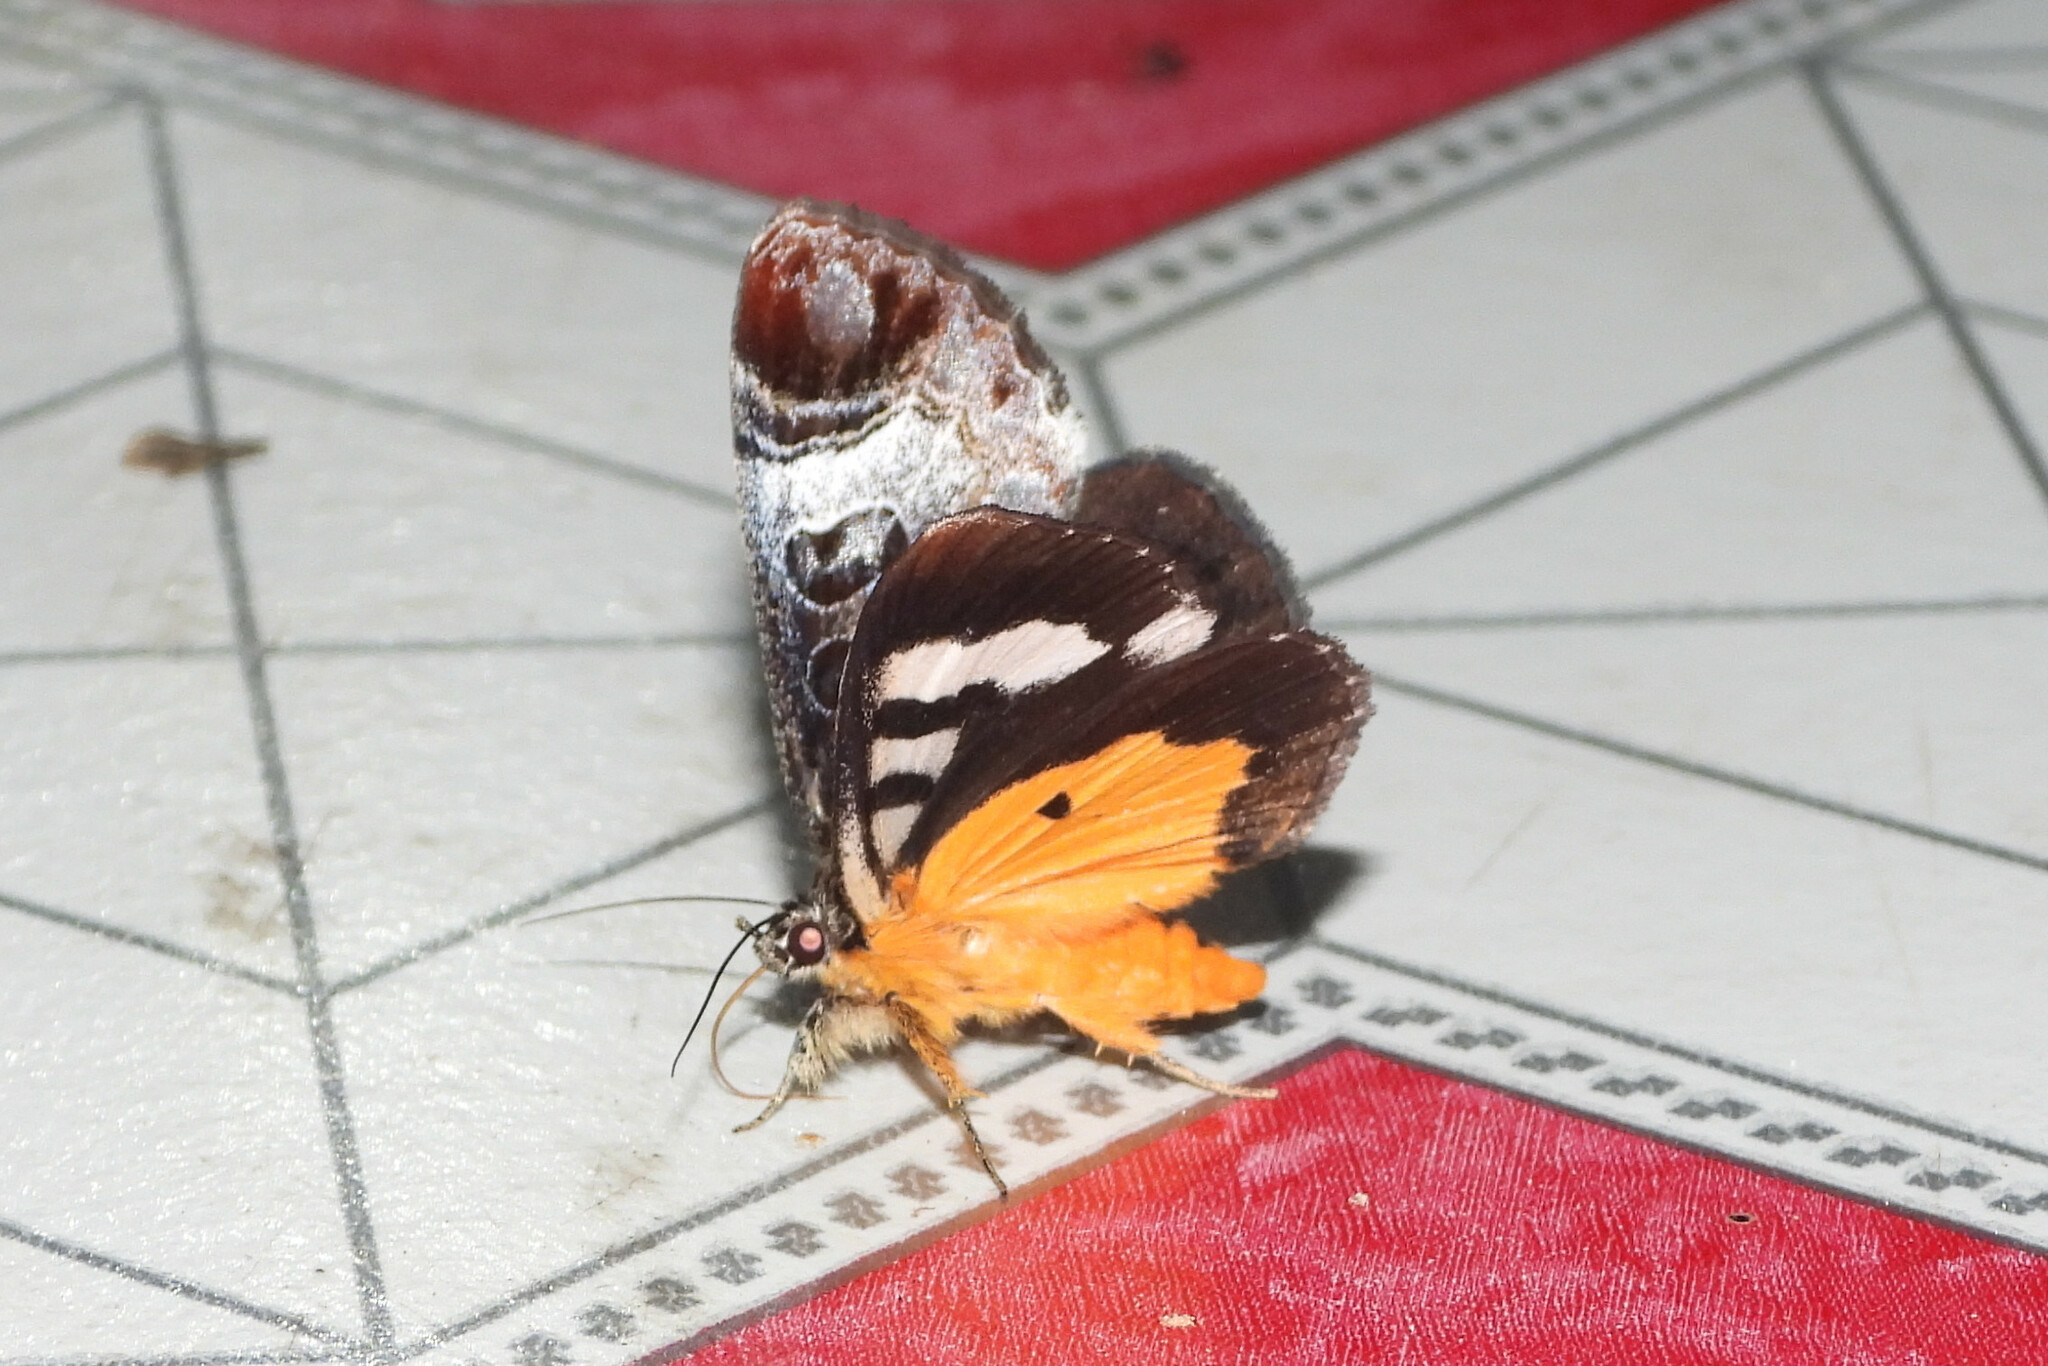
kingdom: Animalia
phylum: Arthropoda
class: Insecta
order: Lepidoptera
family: Noctuidae
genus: Sarbanissa
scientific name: Sarbanissa catacoloides
